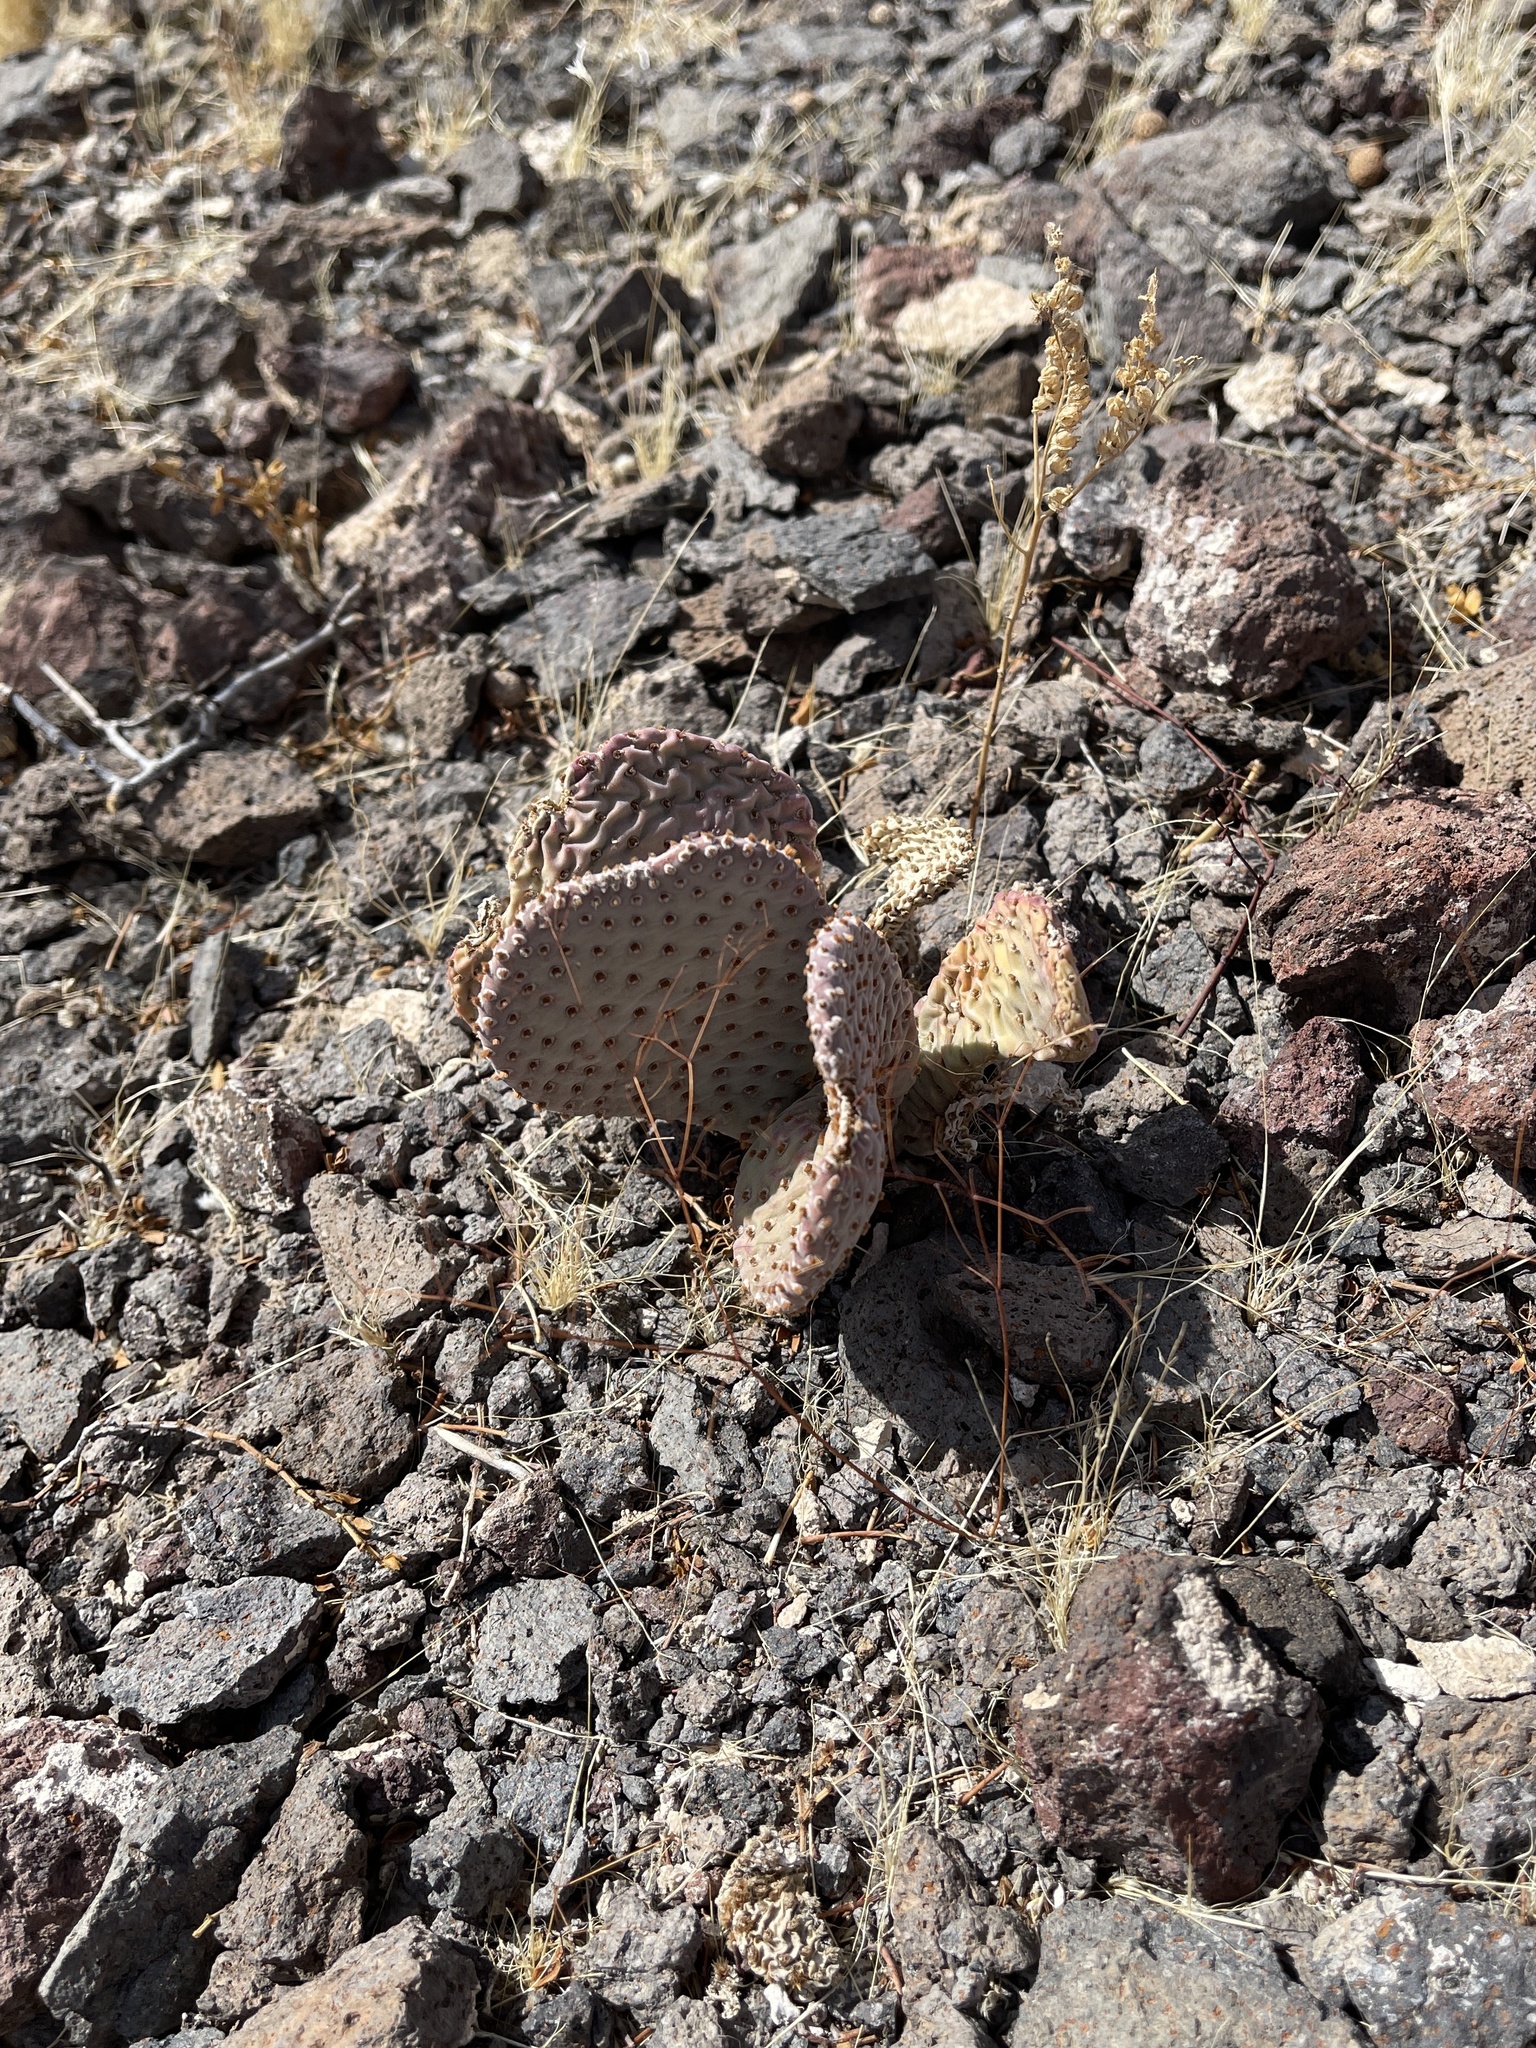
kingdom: Plantae
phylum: Tracheophyta
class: Magnoliopsida
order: Caryophyllales
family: Cactaceae
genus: Opuntia
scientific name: Opuntia basilaris
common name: Beavertail prickly-pear
